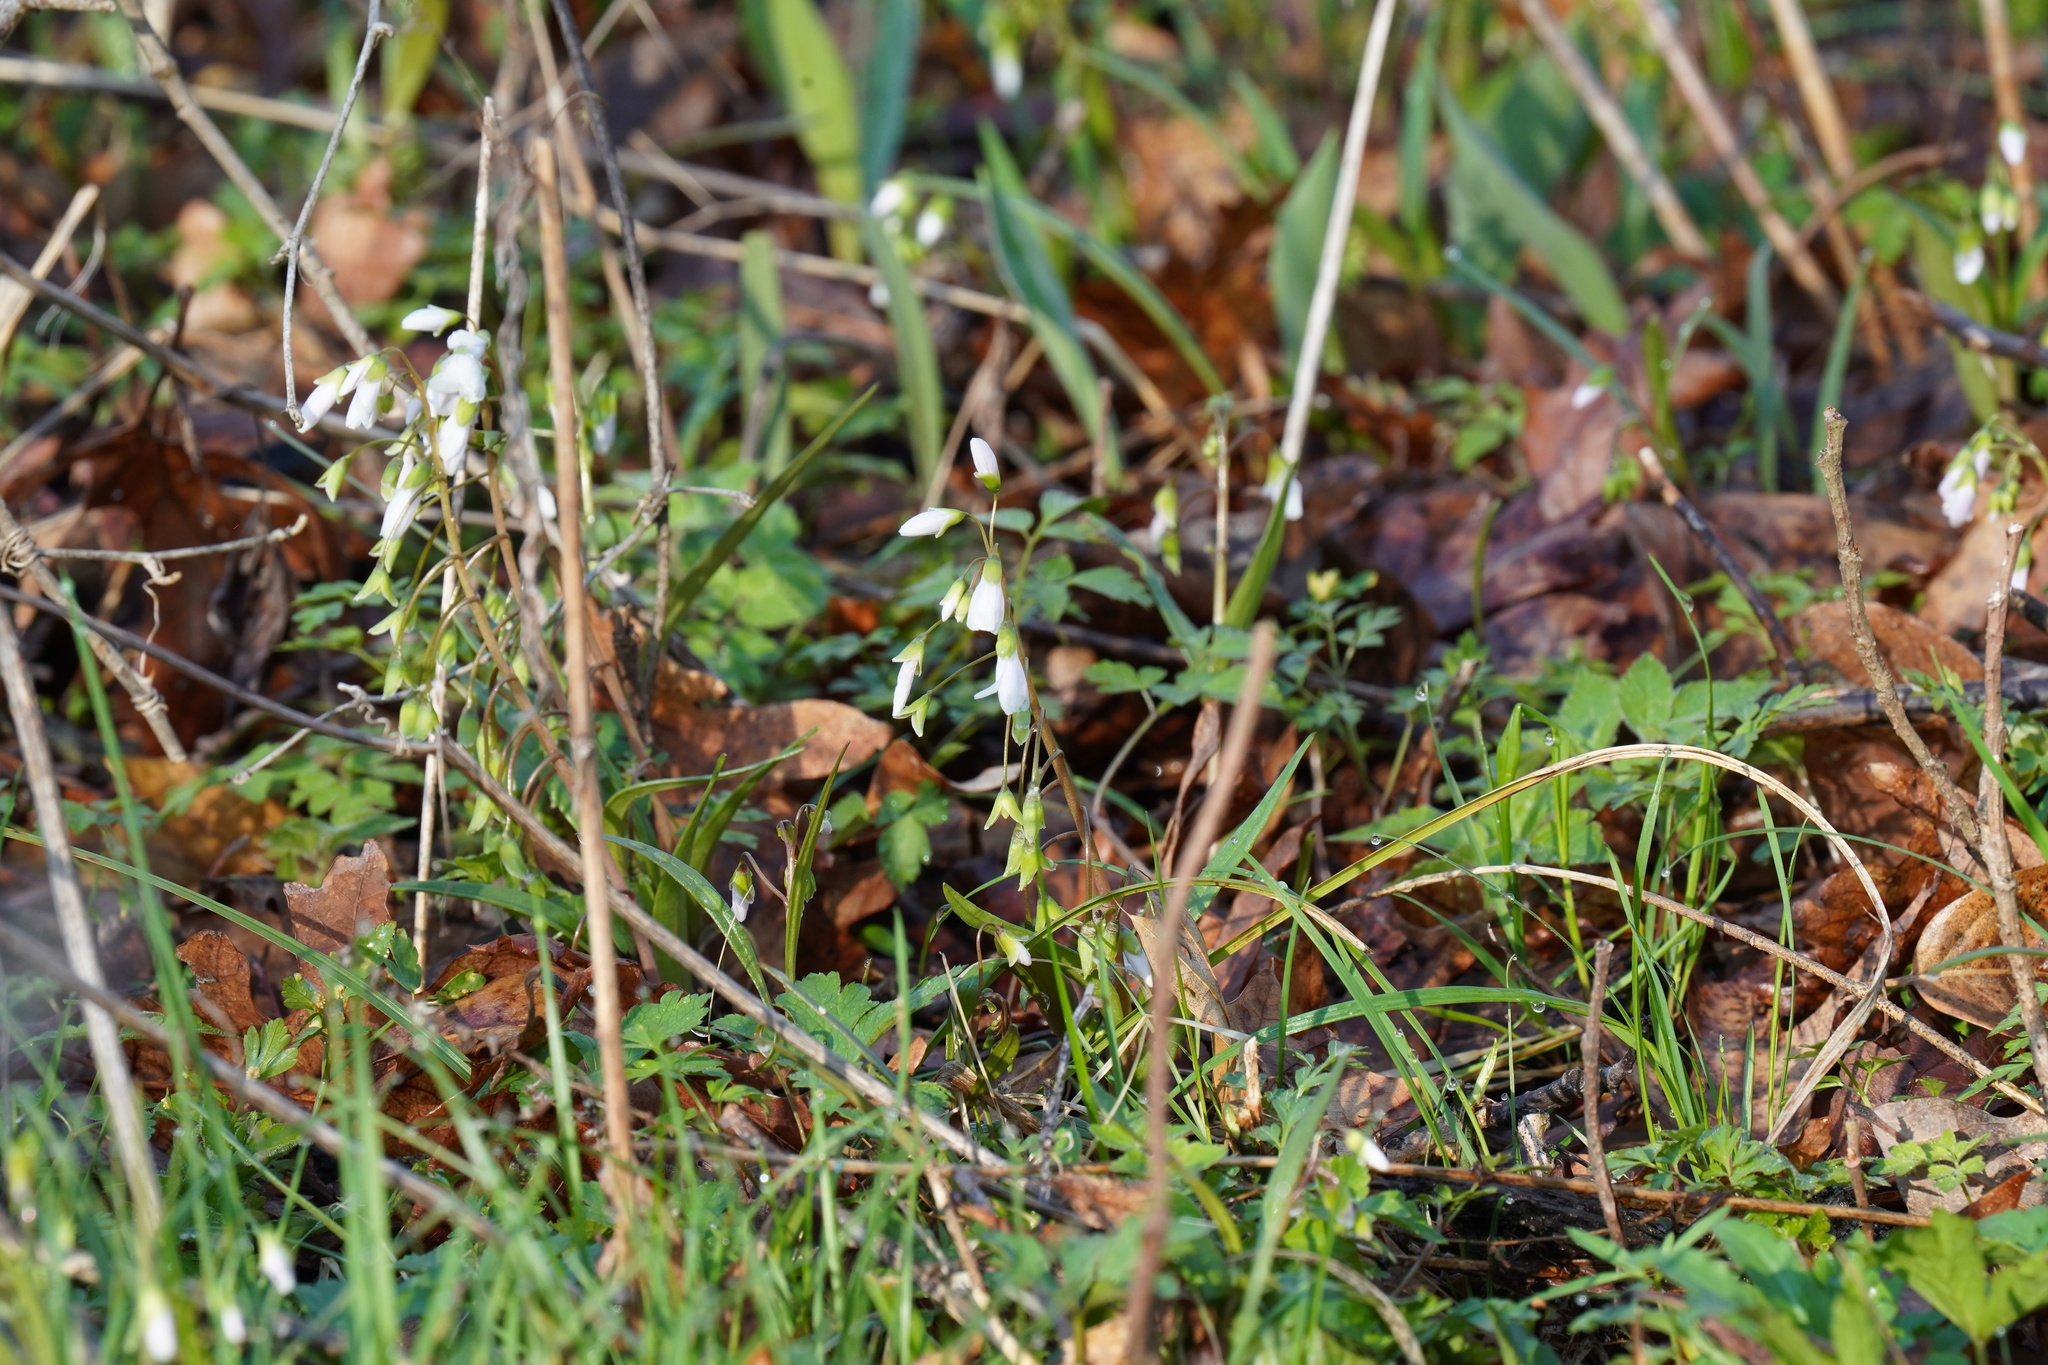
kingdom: Plantae
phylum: Tracheophyta
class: Magnoliopsida
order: Caryophyllales
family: Montiaceae
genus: Claytonia
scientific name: Claytonia virginica
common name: Virginia springbeauty
